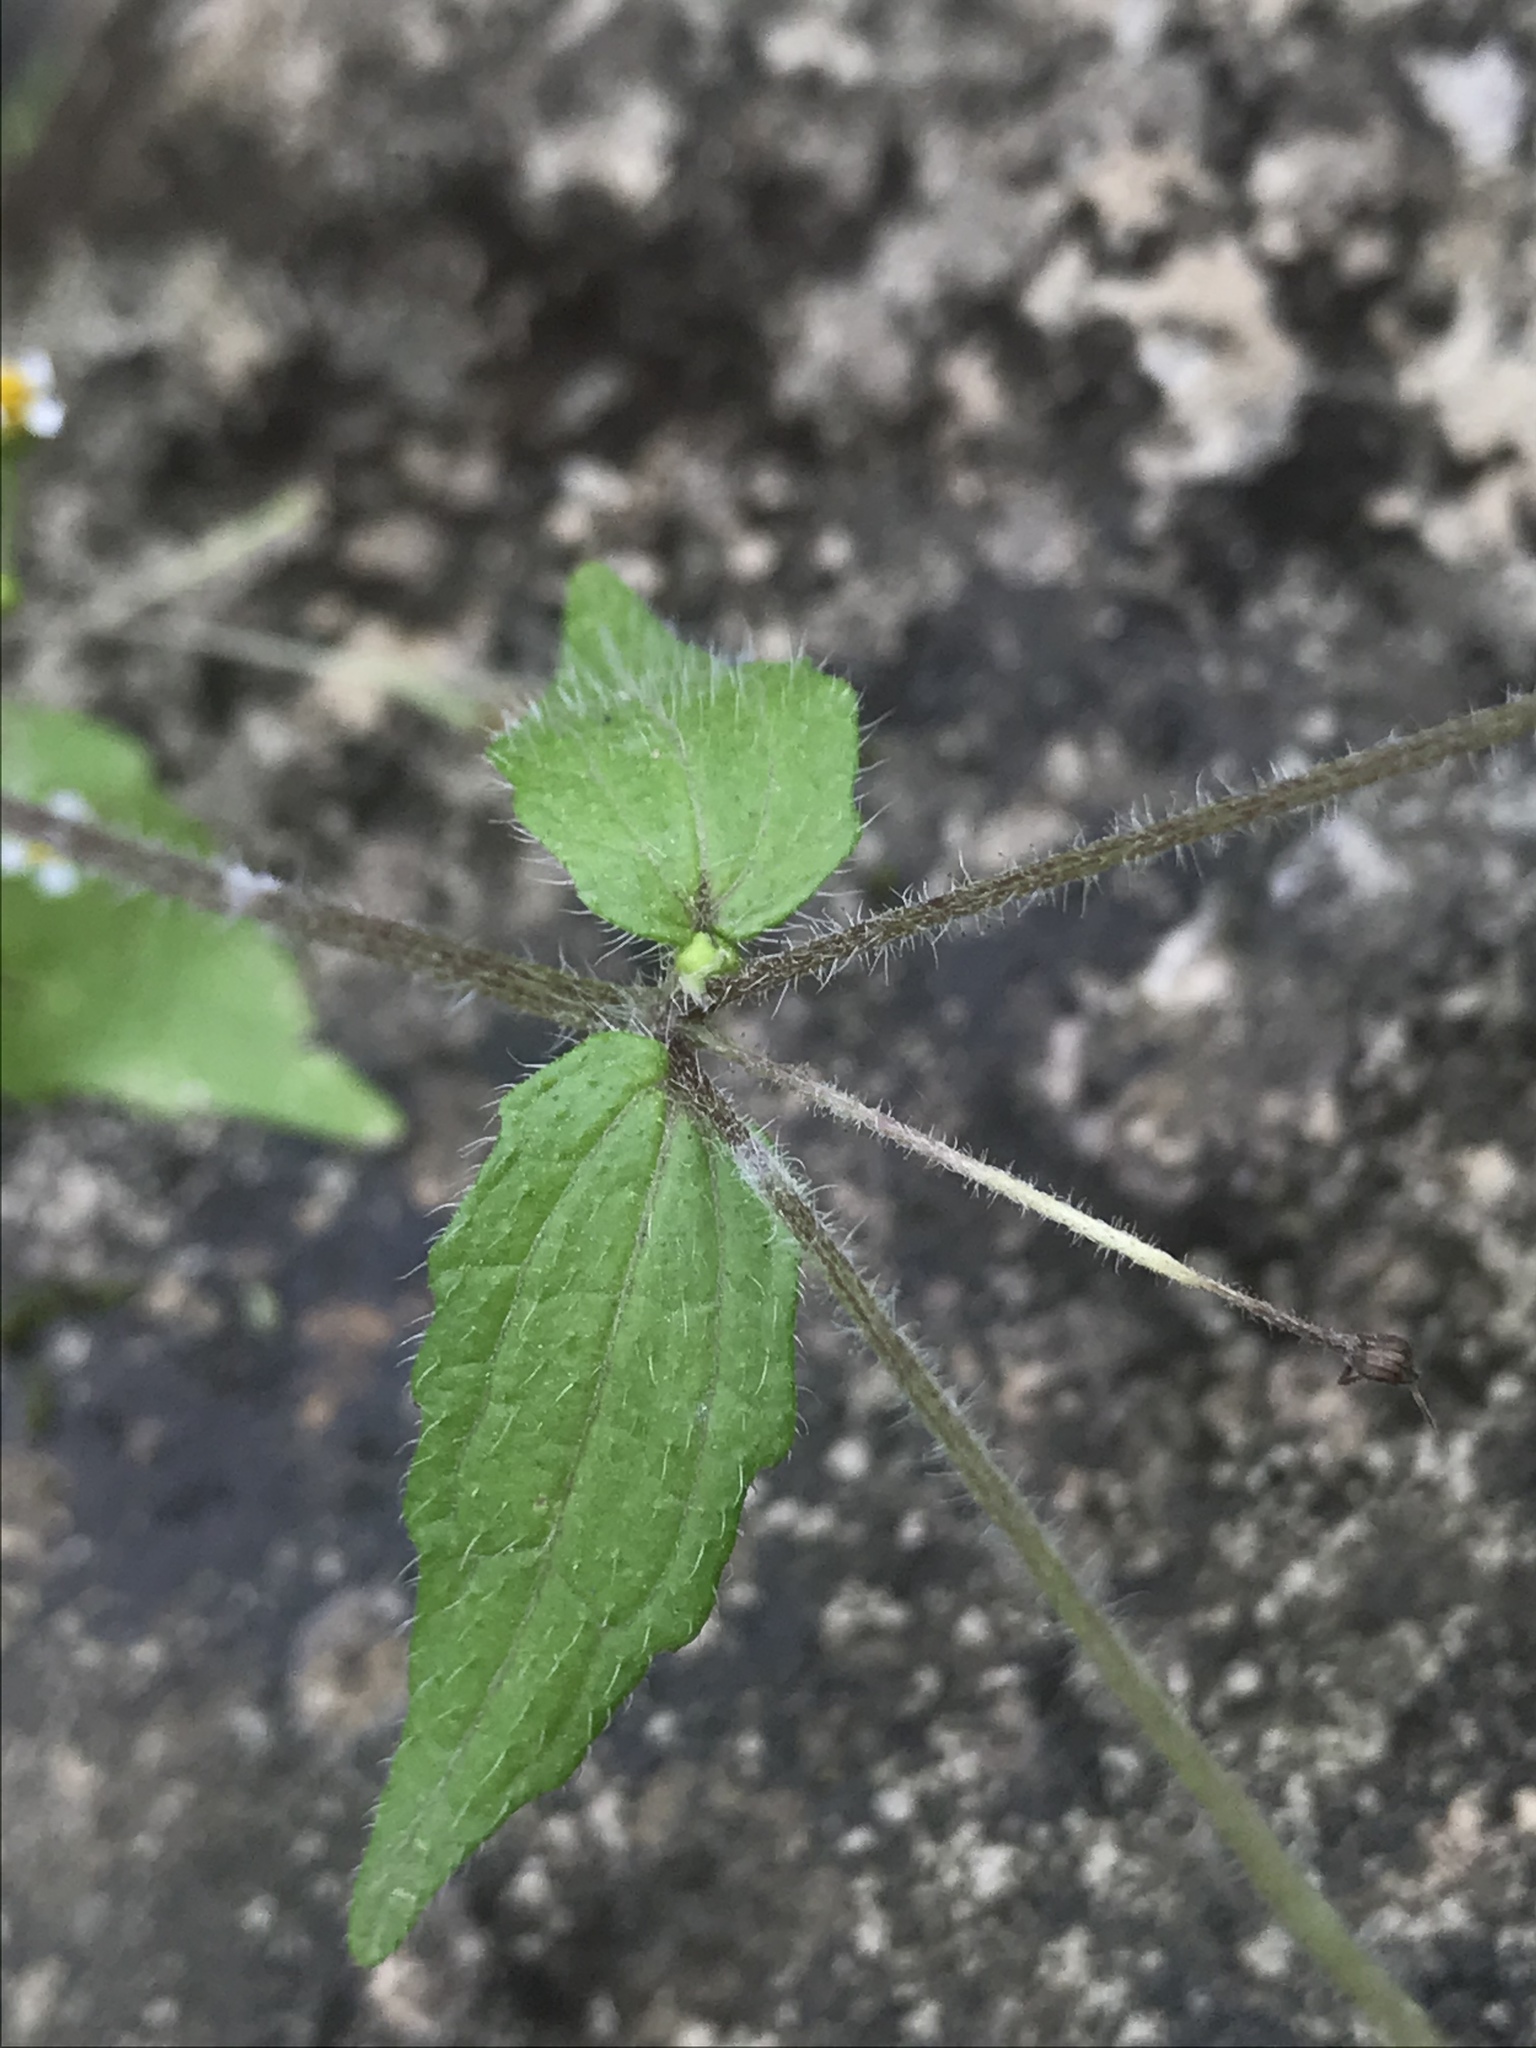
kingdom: Plantae
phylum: Tracheophyta
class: Magnoliopsida
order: Asterales
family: Asteraceae
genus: Galinsoga
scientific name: Galinsoga quadriradiata
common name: Shaggy soldier
